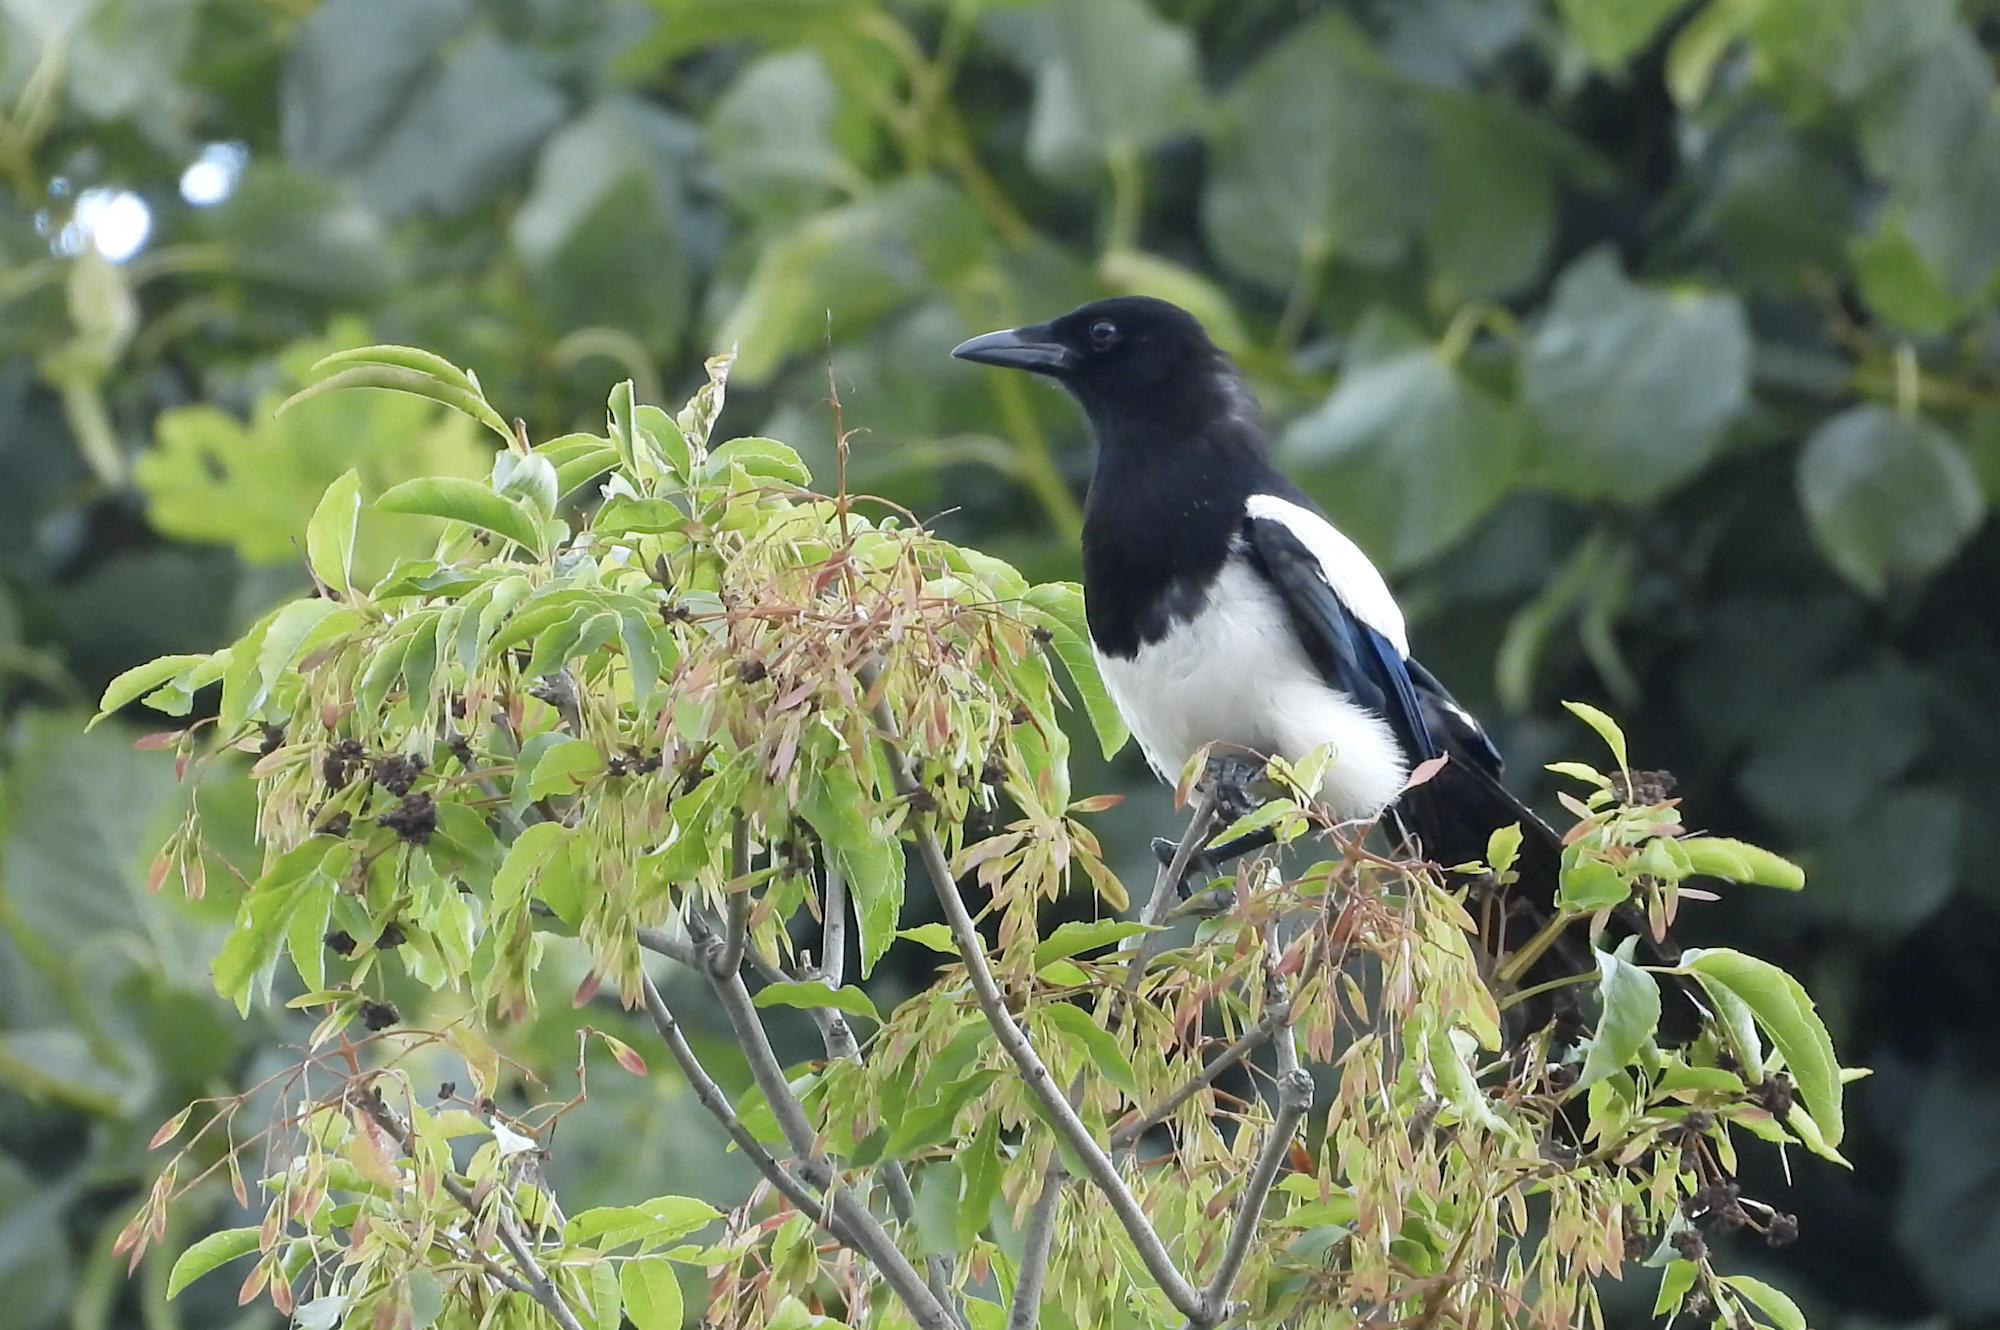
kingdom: Animalia
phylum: Chordata
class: Aves
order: Passeriformes
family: Corvidae
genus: Pica
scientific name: Pica pica
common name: Eurasian magpie
